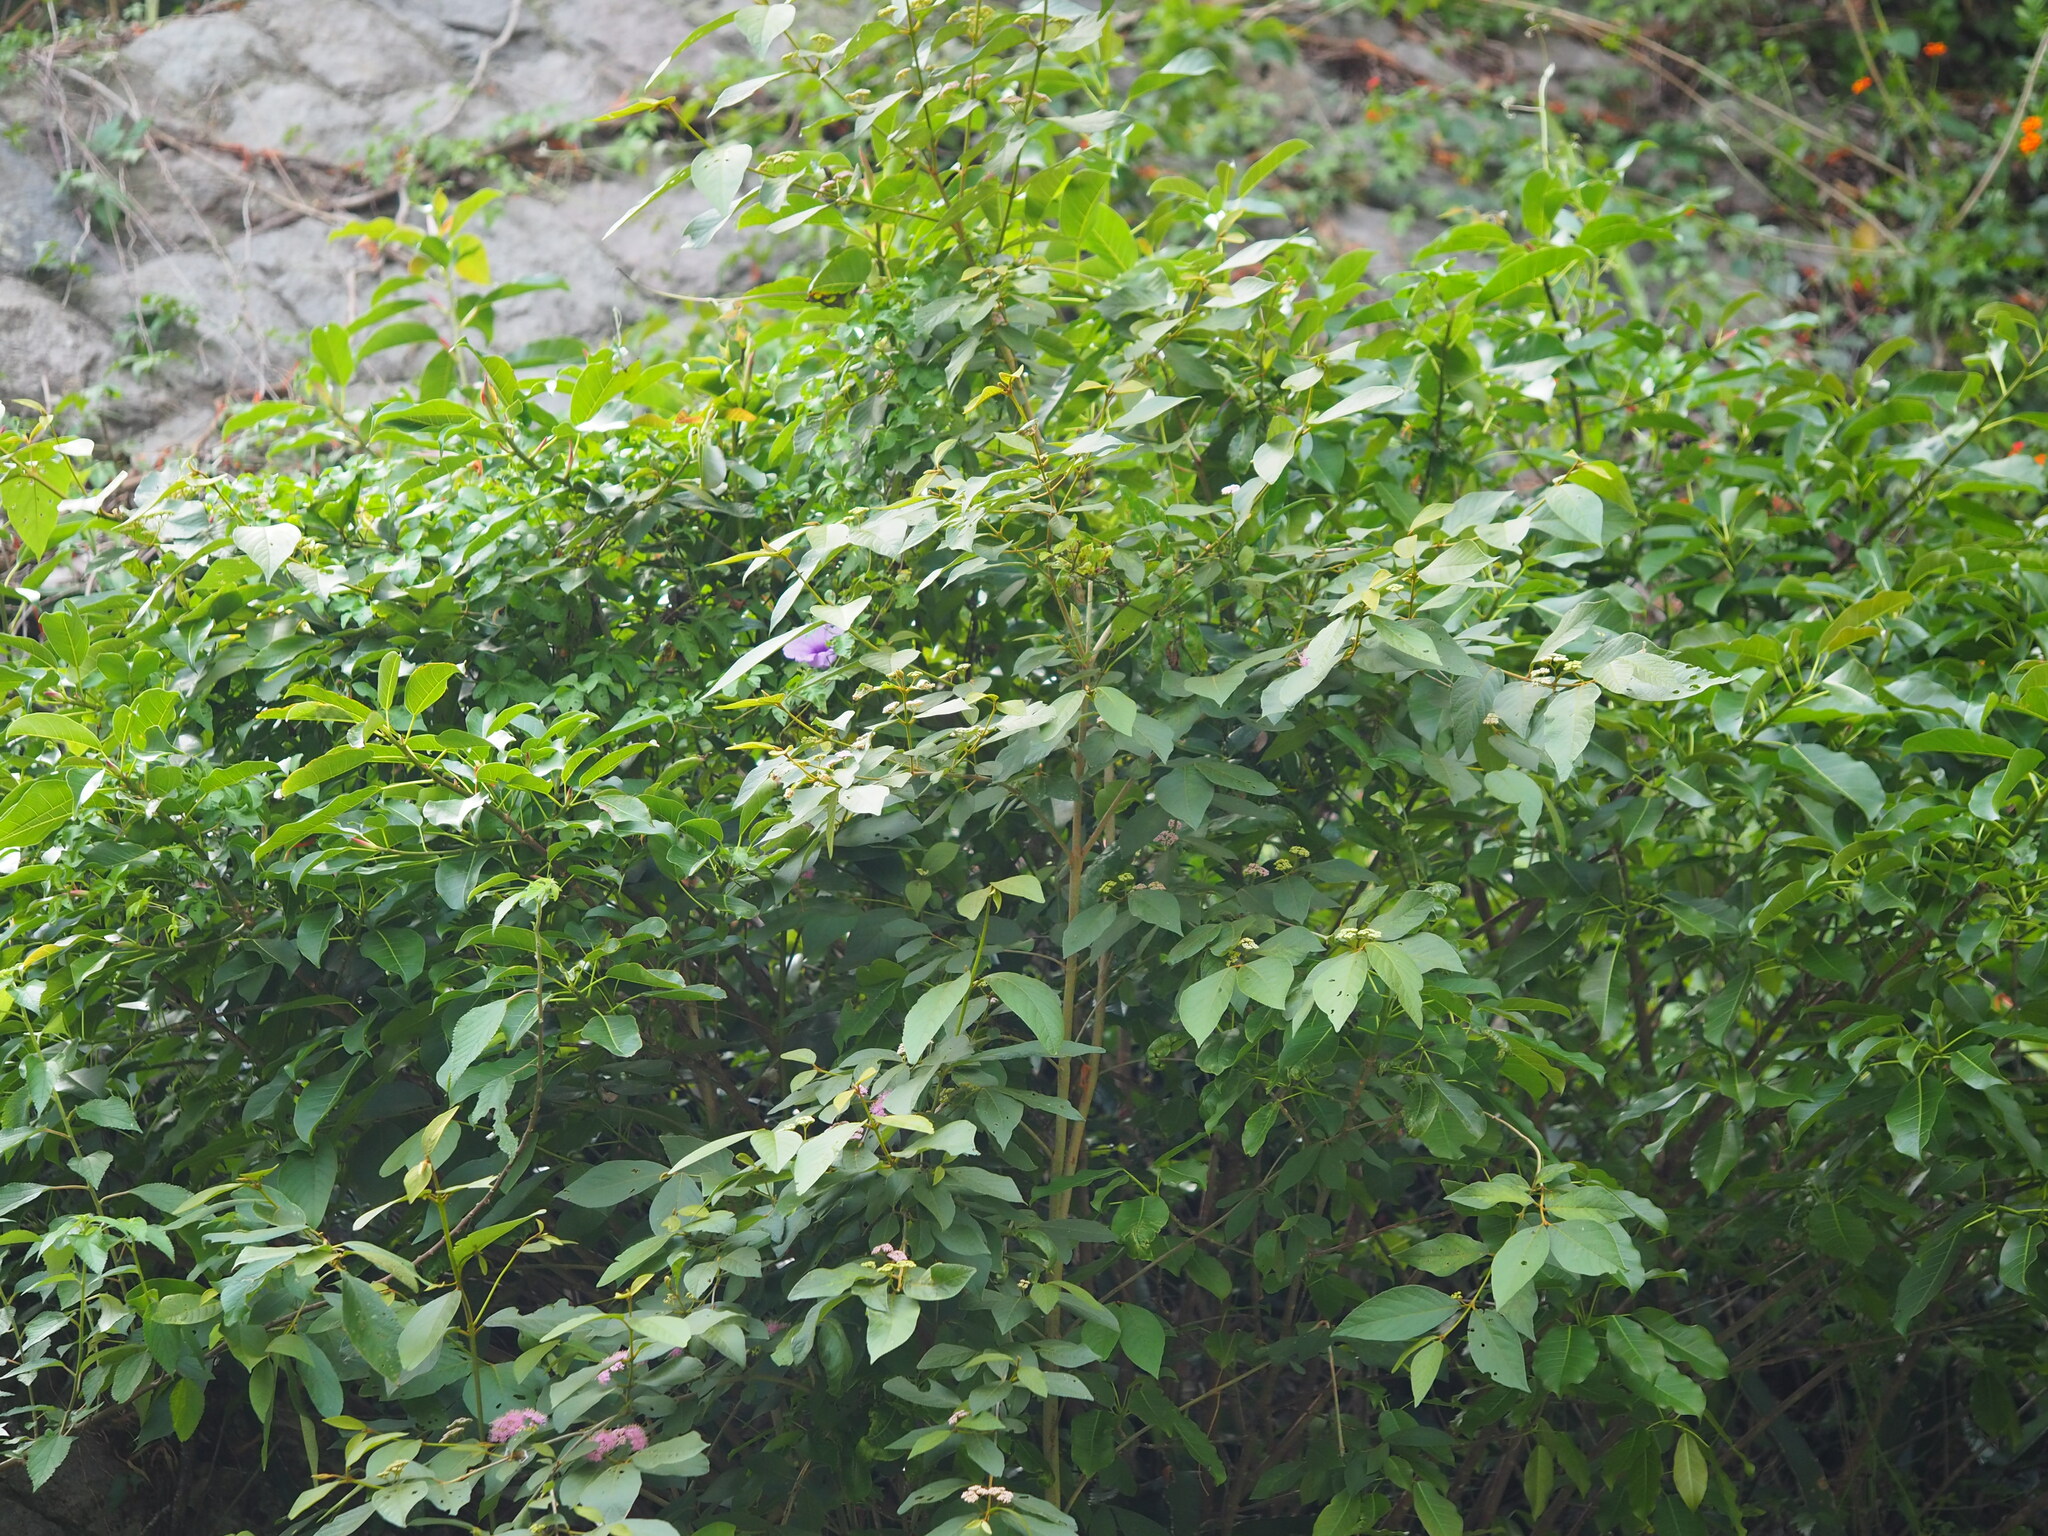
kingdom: Plantae
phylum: Tracheophyta
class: Magnoliopsida
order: Lamiales
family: Lamiaceae
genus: Callicarpa
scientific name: Callicarpa pedunculata
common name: Velvetleaf
